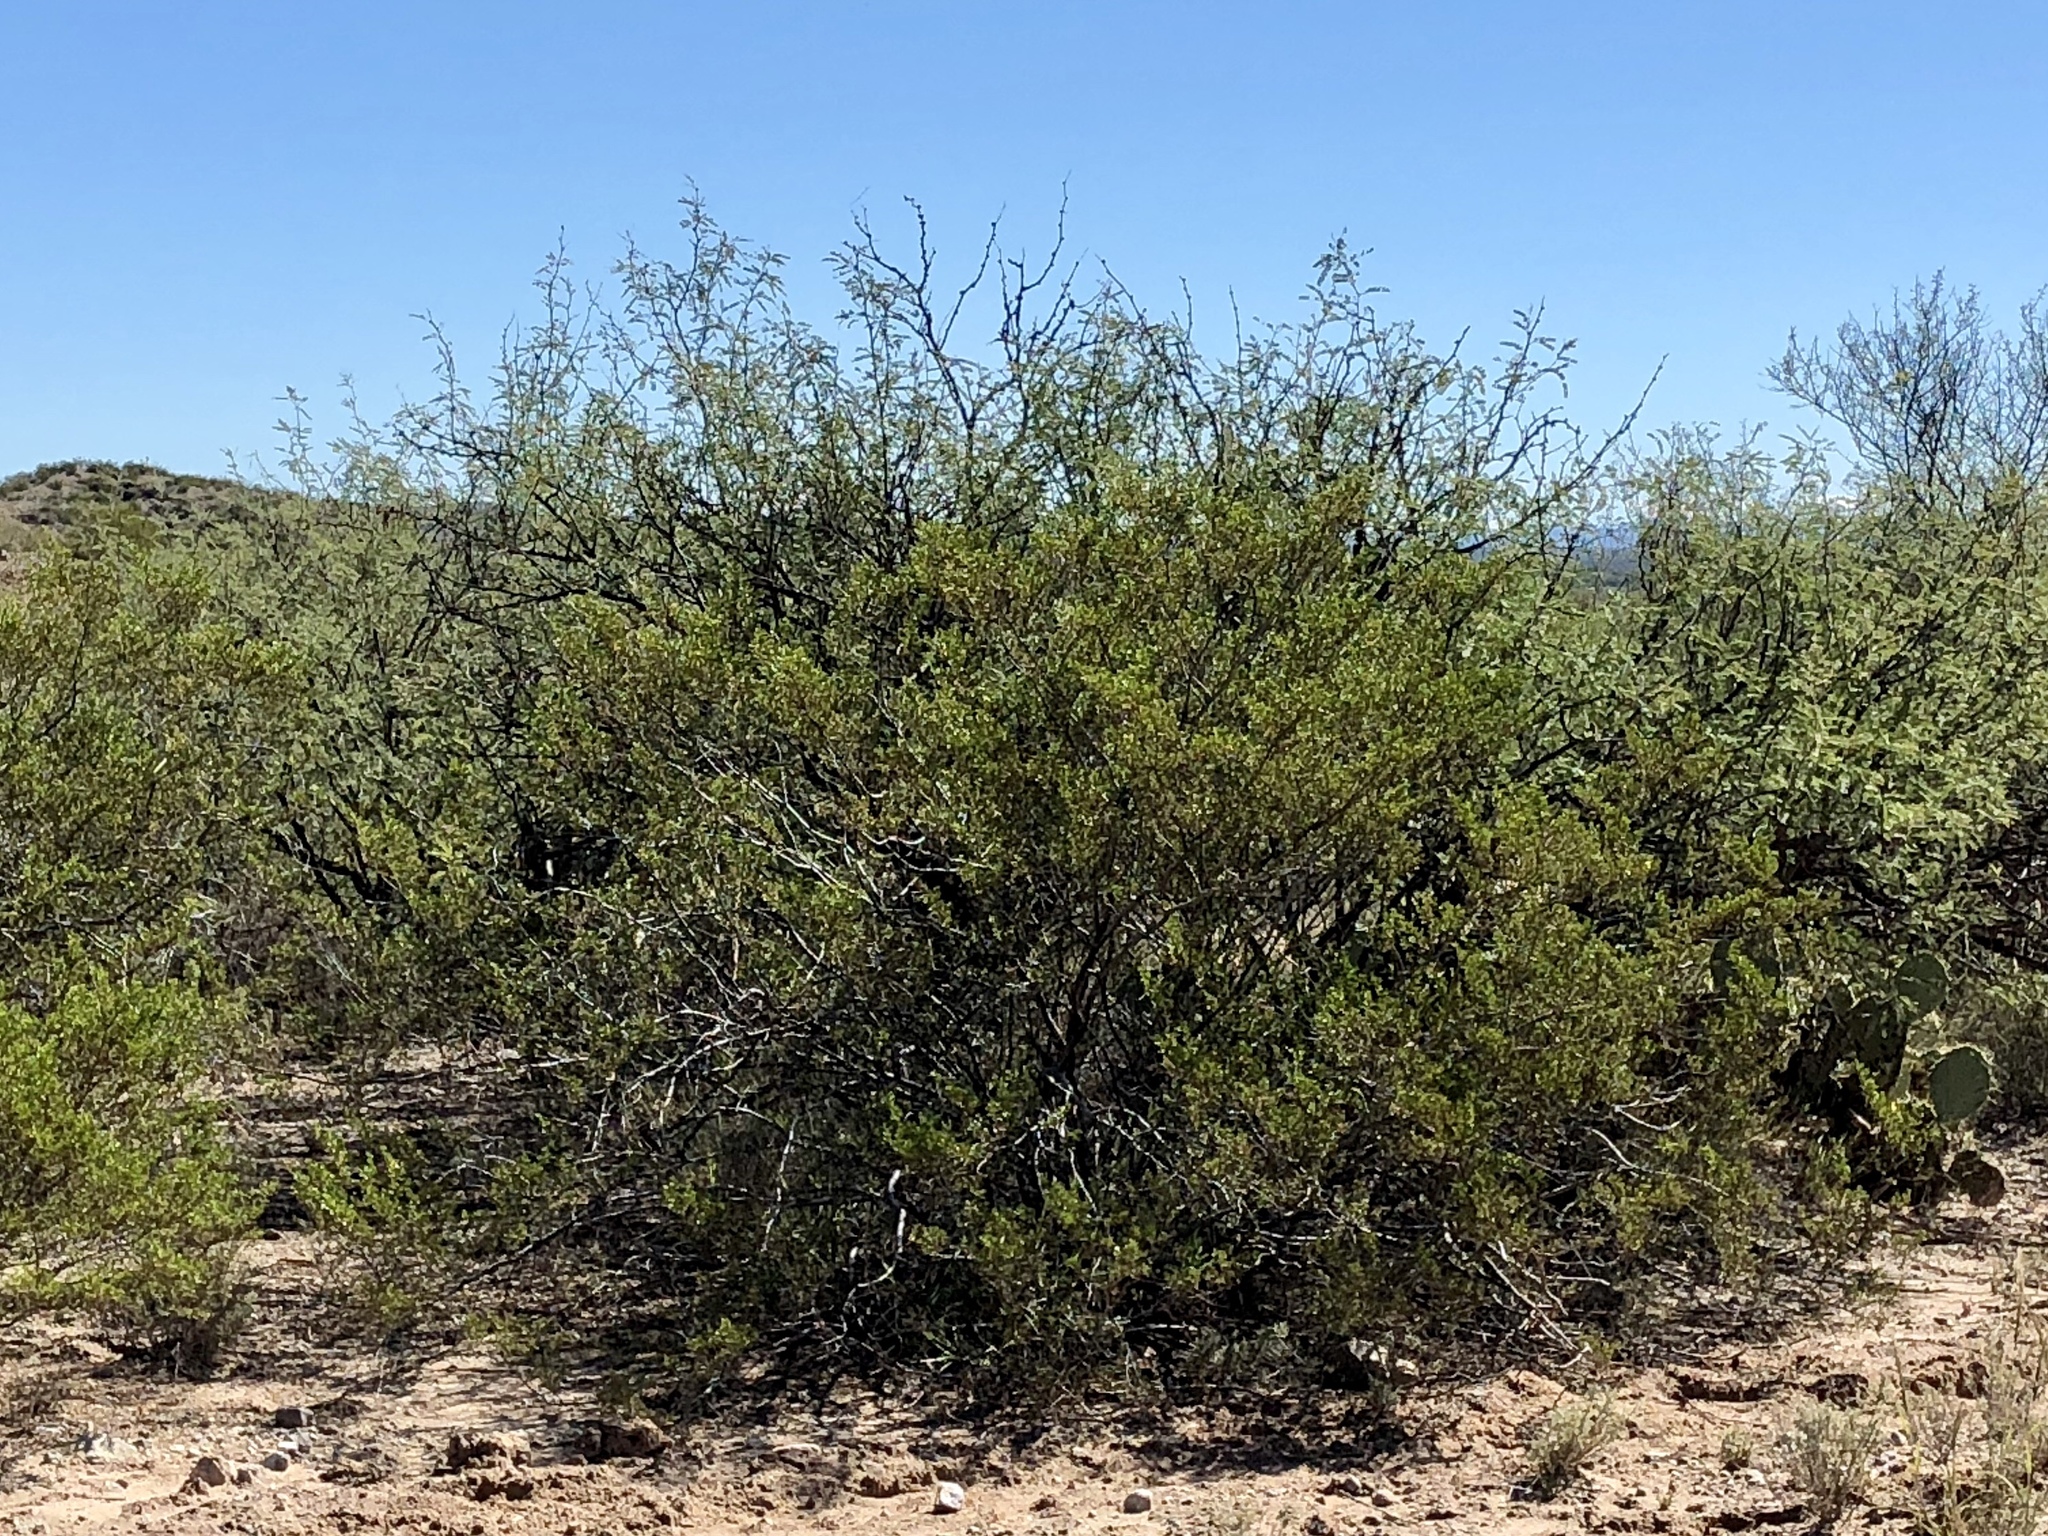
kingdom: Plantae
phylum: Tracheophyta
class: Magnoliopsida
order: Zygophyllales
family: Zygophyllaceae
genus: Larrea
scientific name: Larrea tridentata
